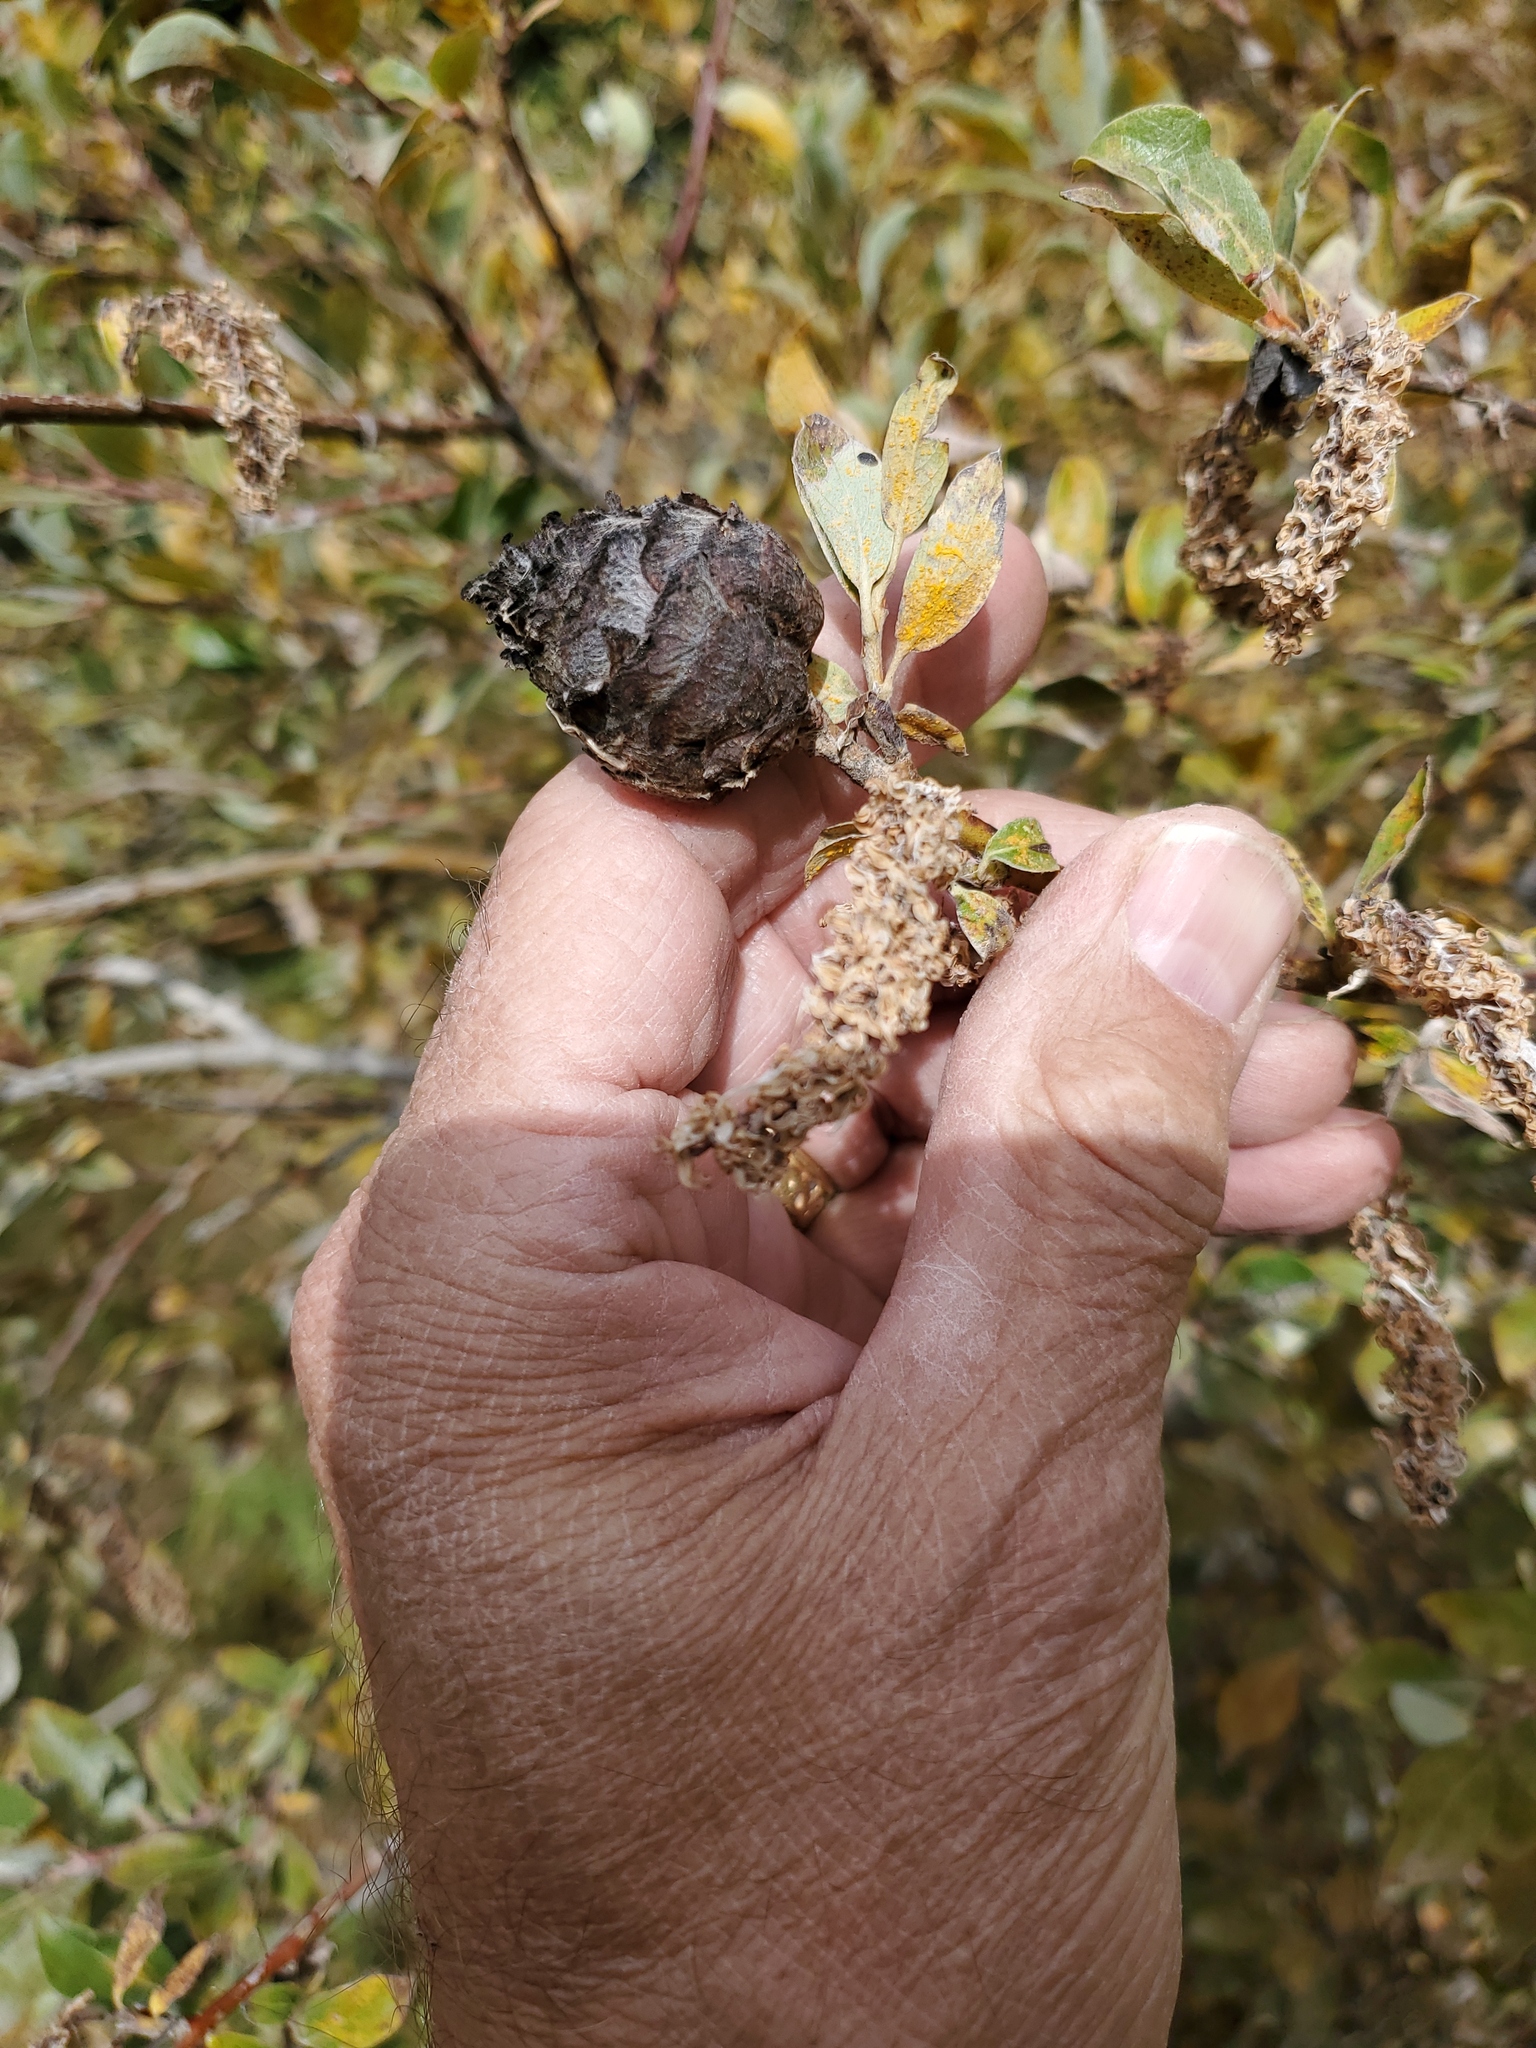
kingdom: Animalia
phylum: Arthropoda
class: Insecta
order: Diptera
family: Cecidomyiidae
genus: Rabdophaga
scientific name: Rabdophaga strobiloides
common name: Willow pinecone gall midge
